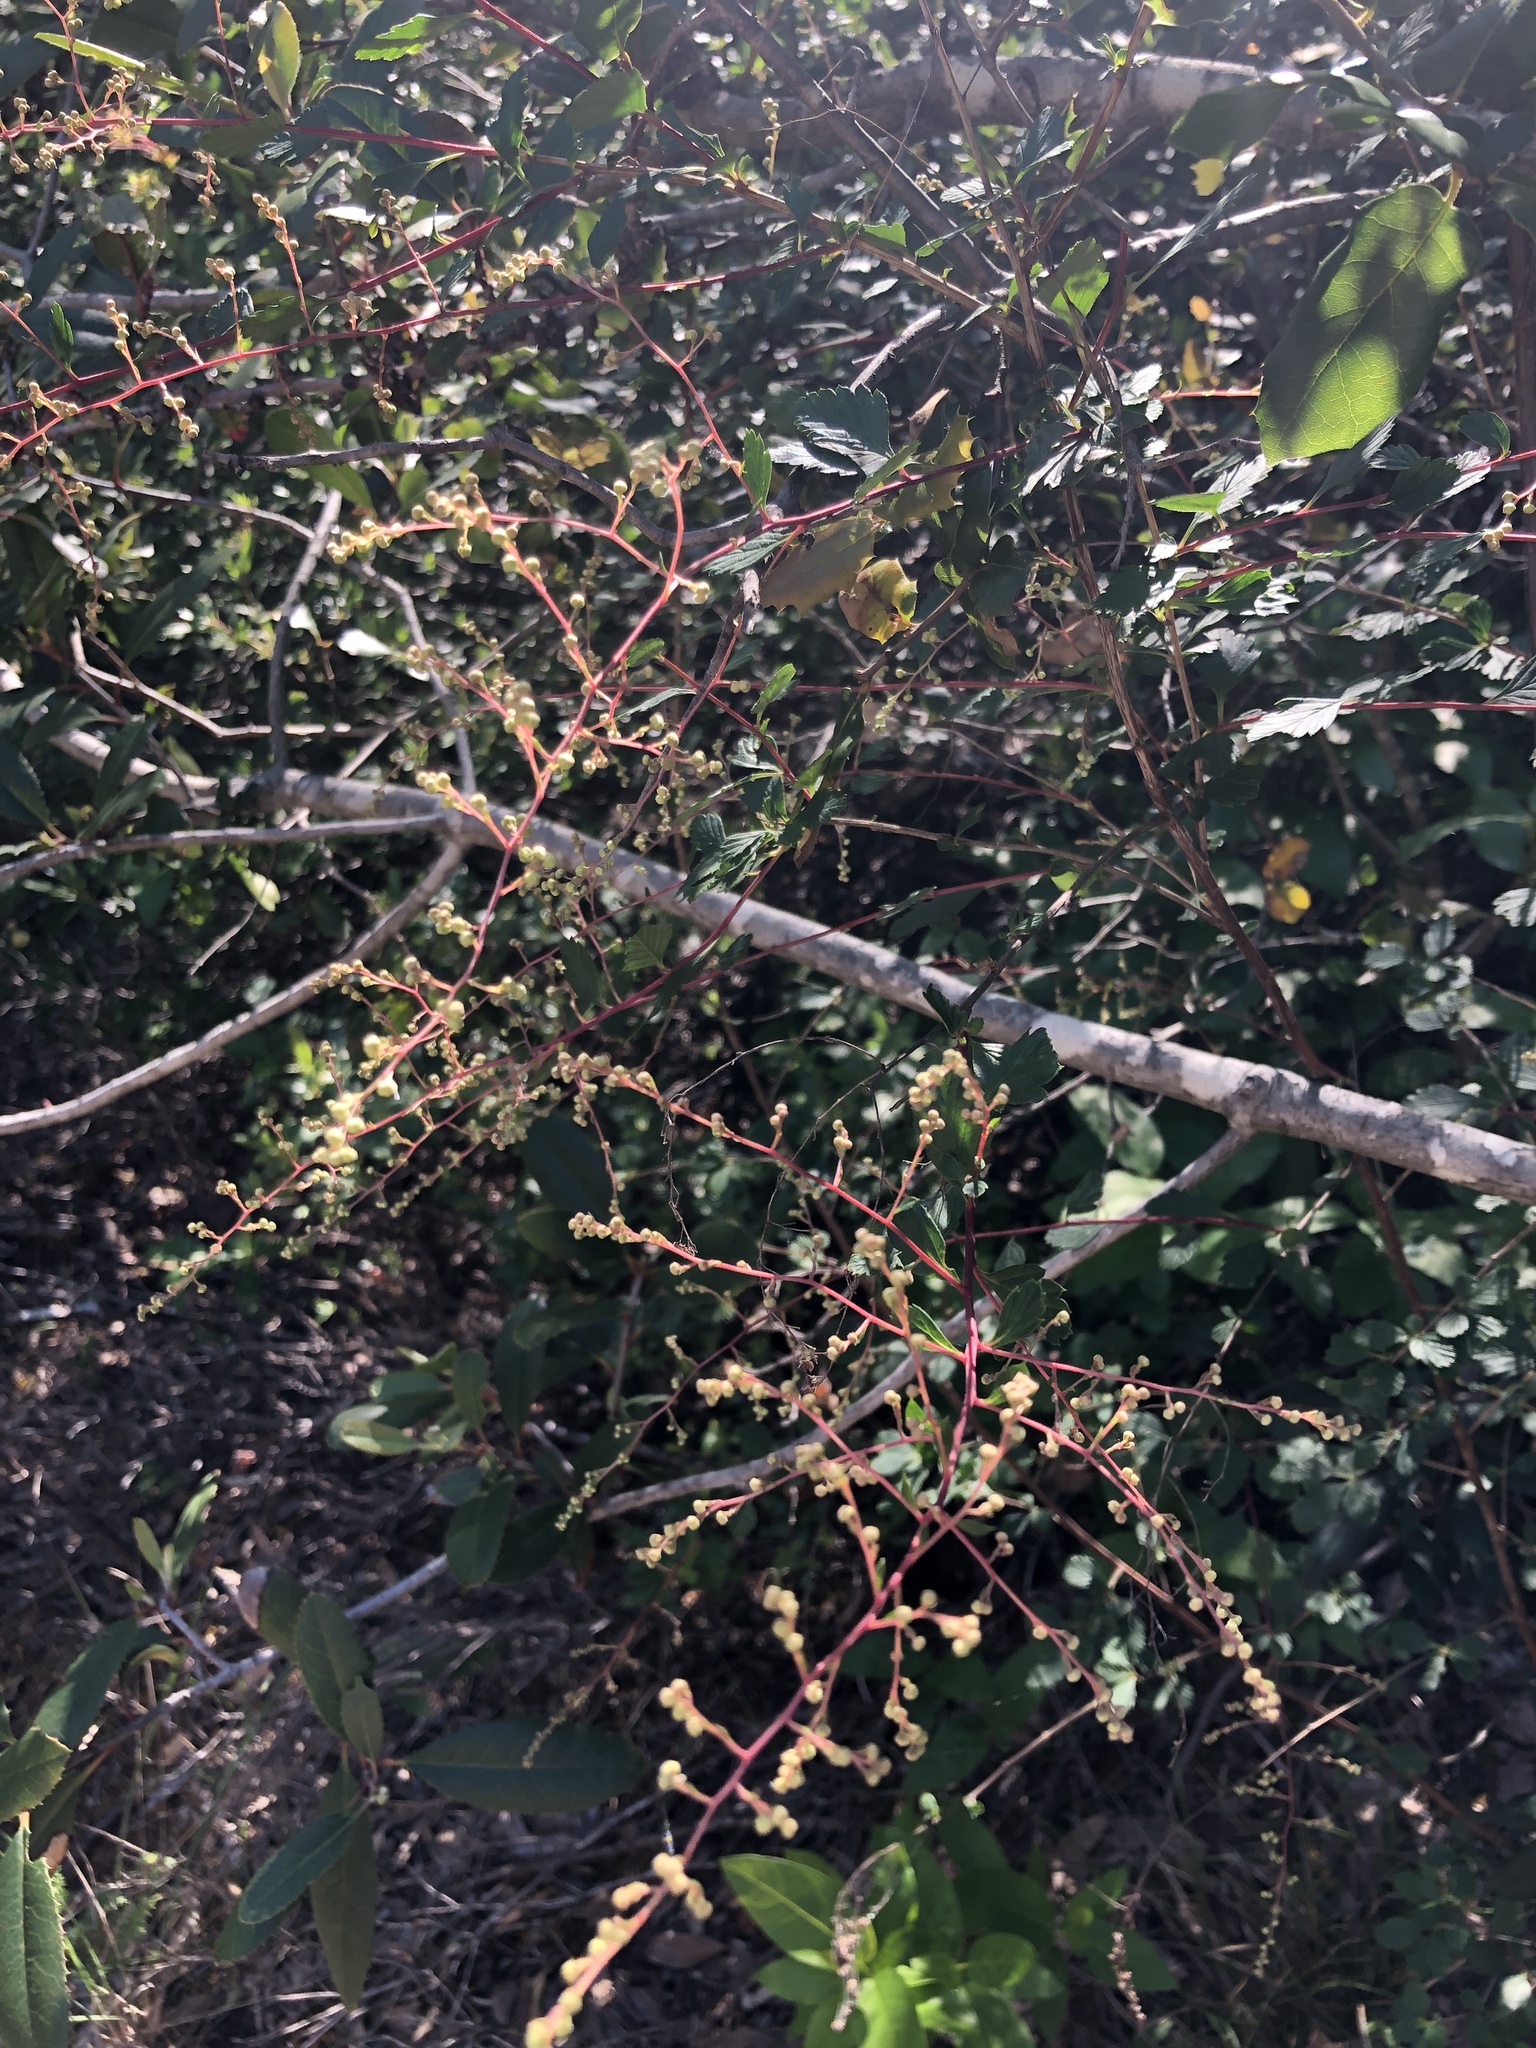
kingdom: Plantae
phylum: Tracheophyta
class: Magnoliopsida
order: Rosales
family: Rosaceae
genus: Holodiscus
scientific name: Holodiscus discolor
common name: Oceanspray
